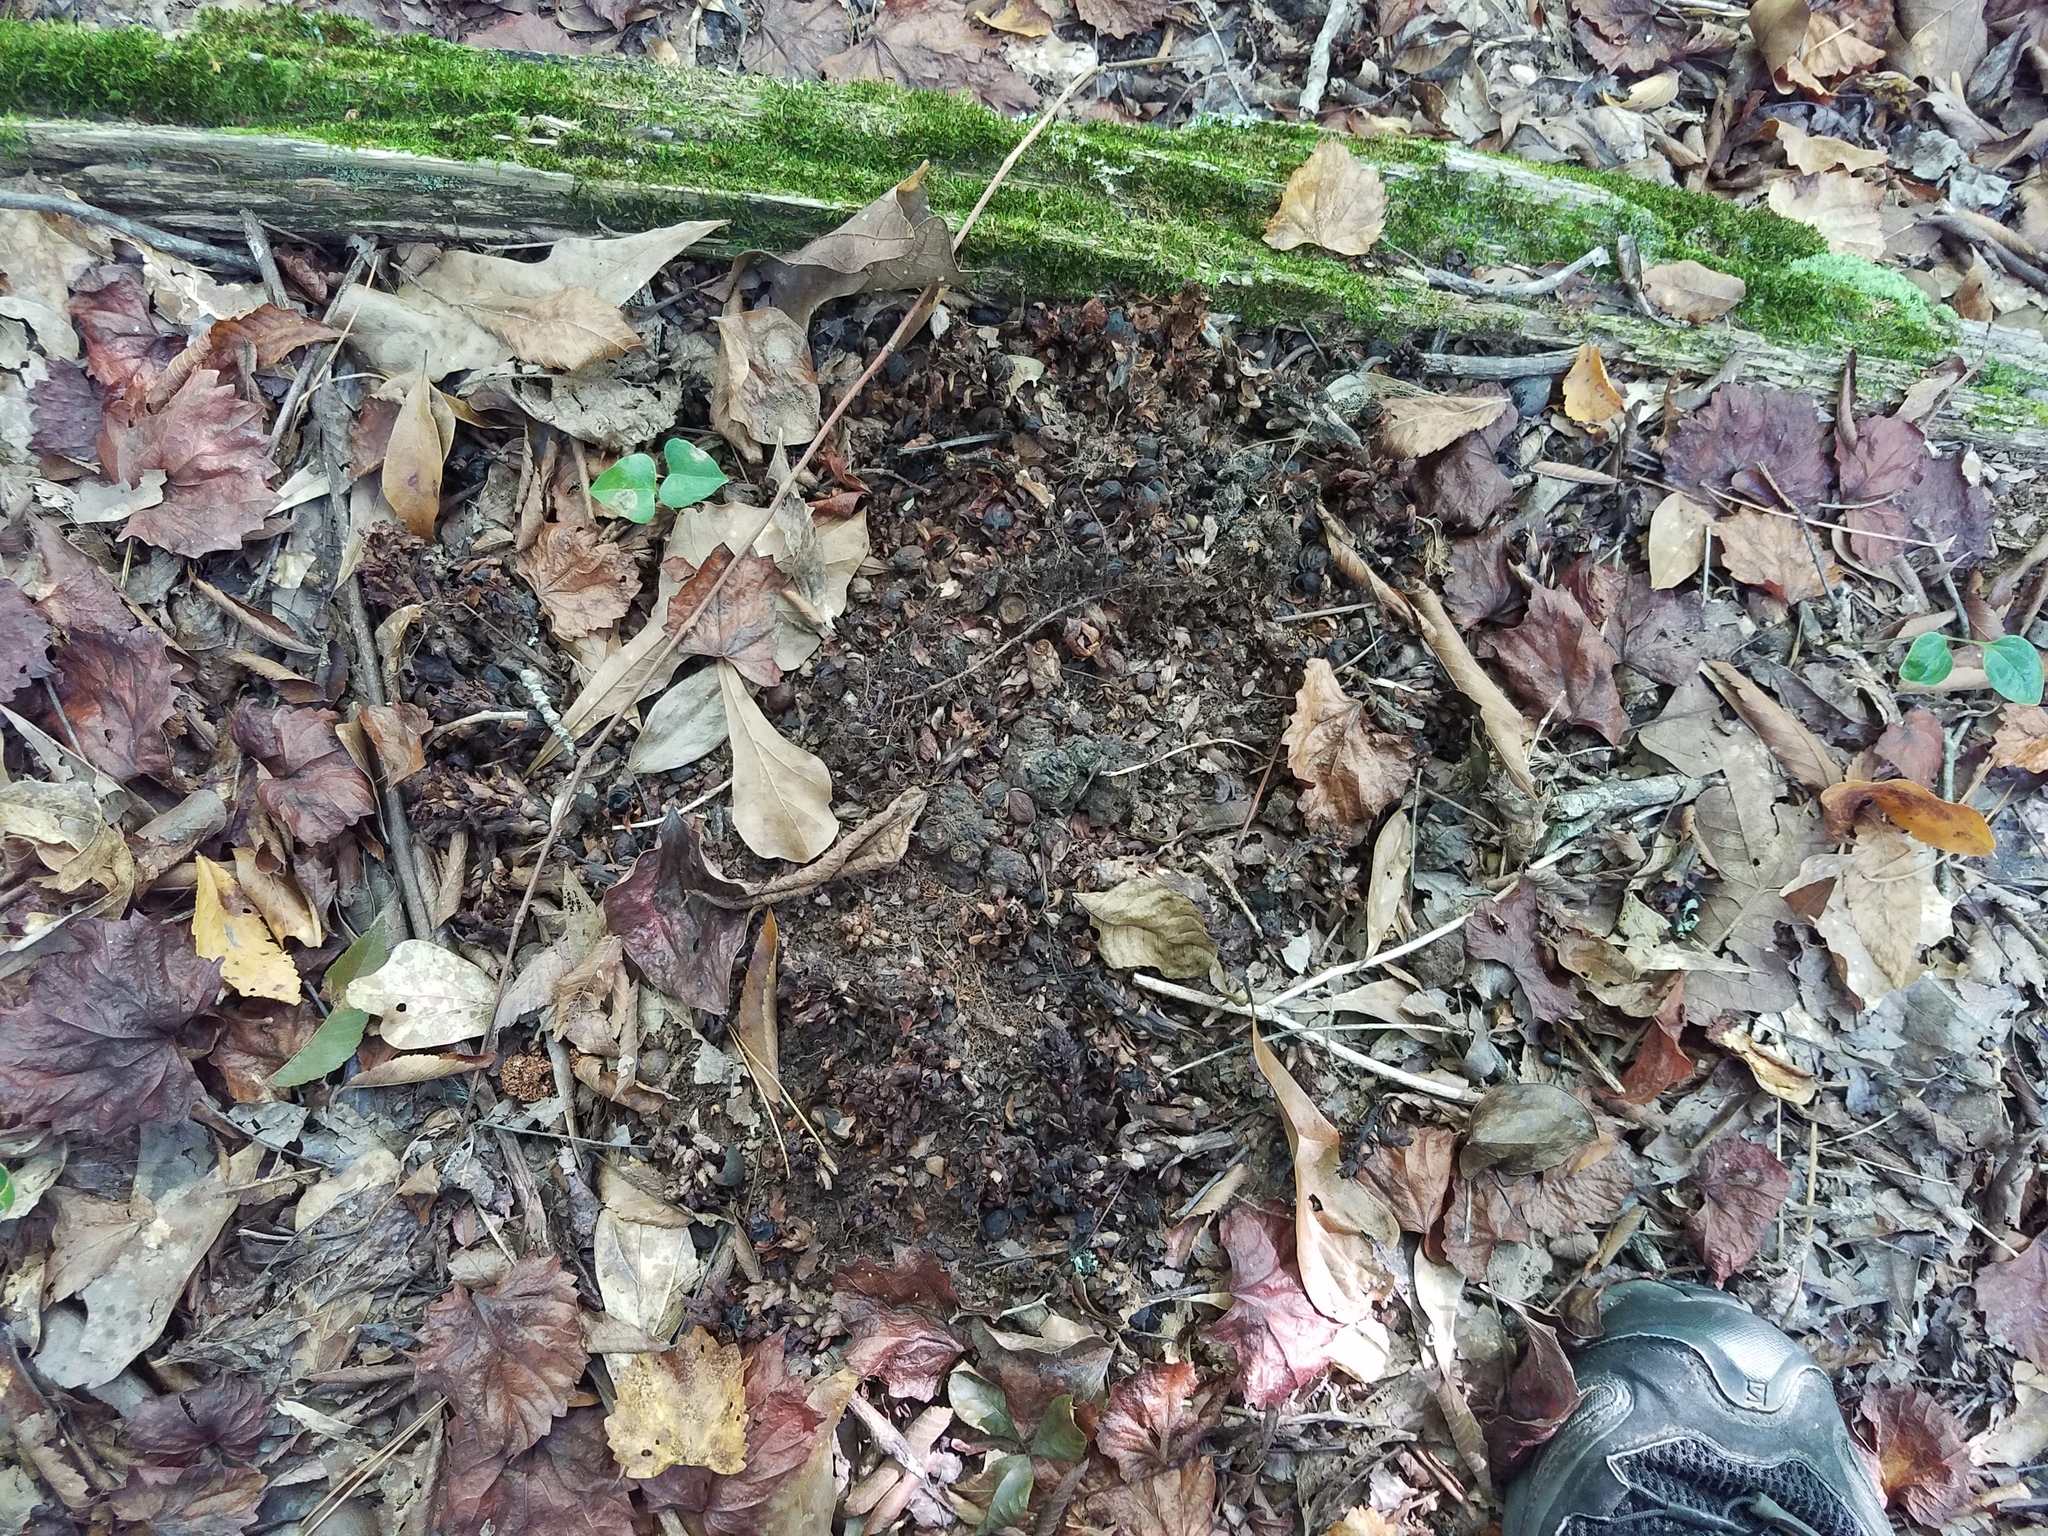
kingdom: Plantae
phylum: Tracheophyta
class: Magnoliopsida
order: Lamiales
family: Orobanchaceae
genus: Conopholis
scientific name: Conopholis americana
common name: American cancer-root
